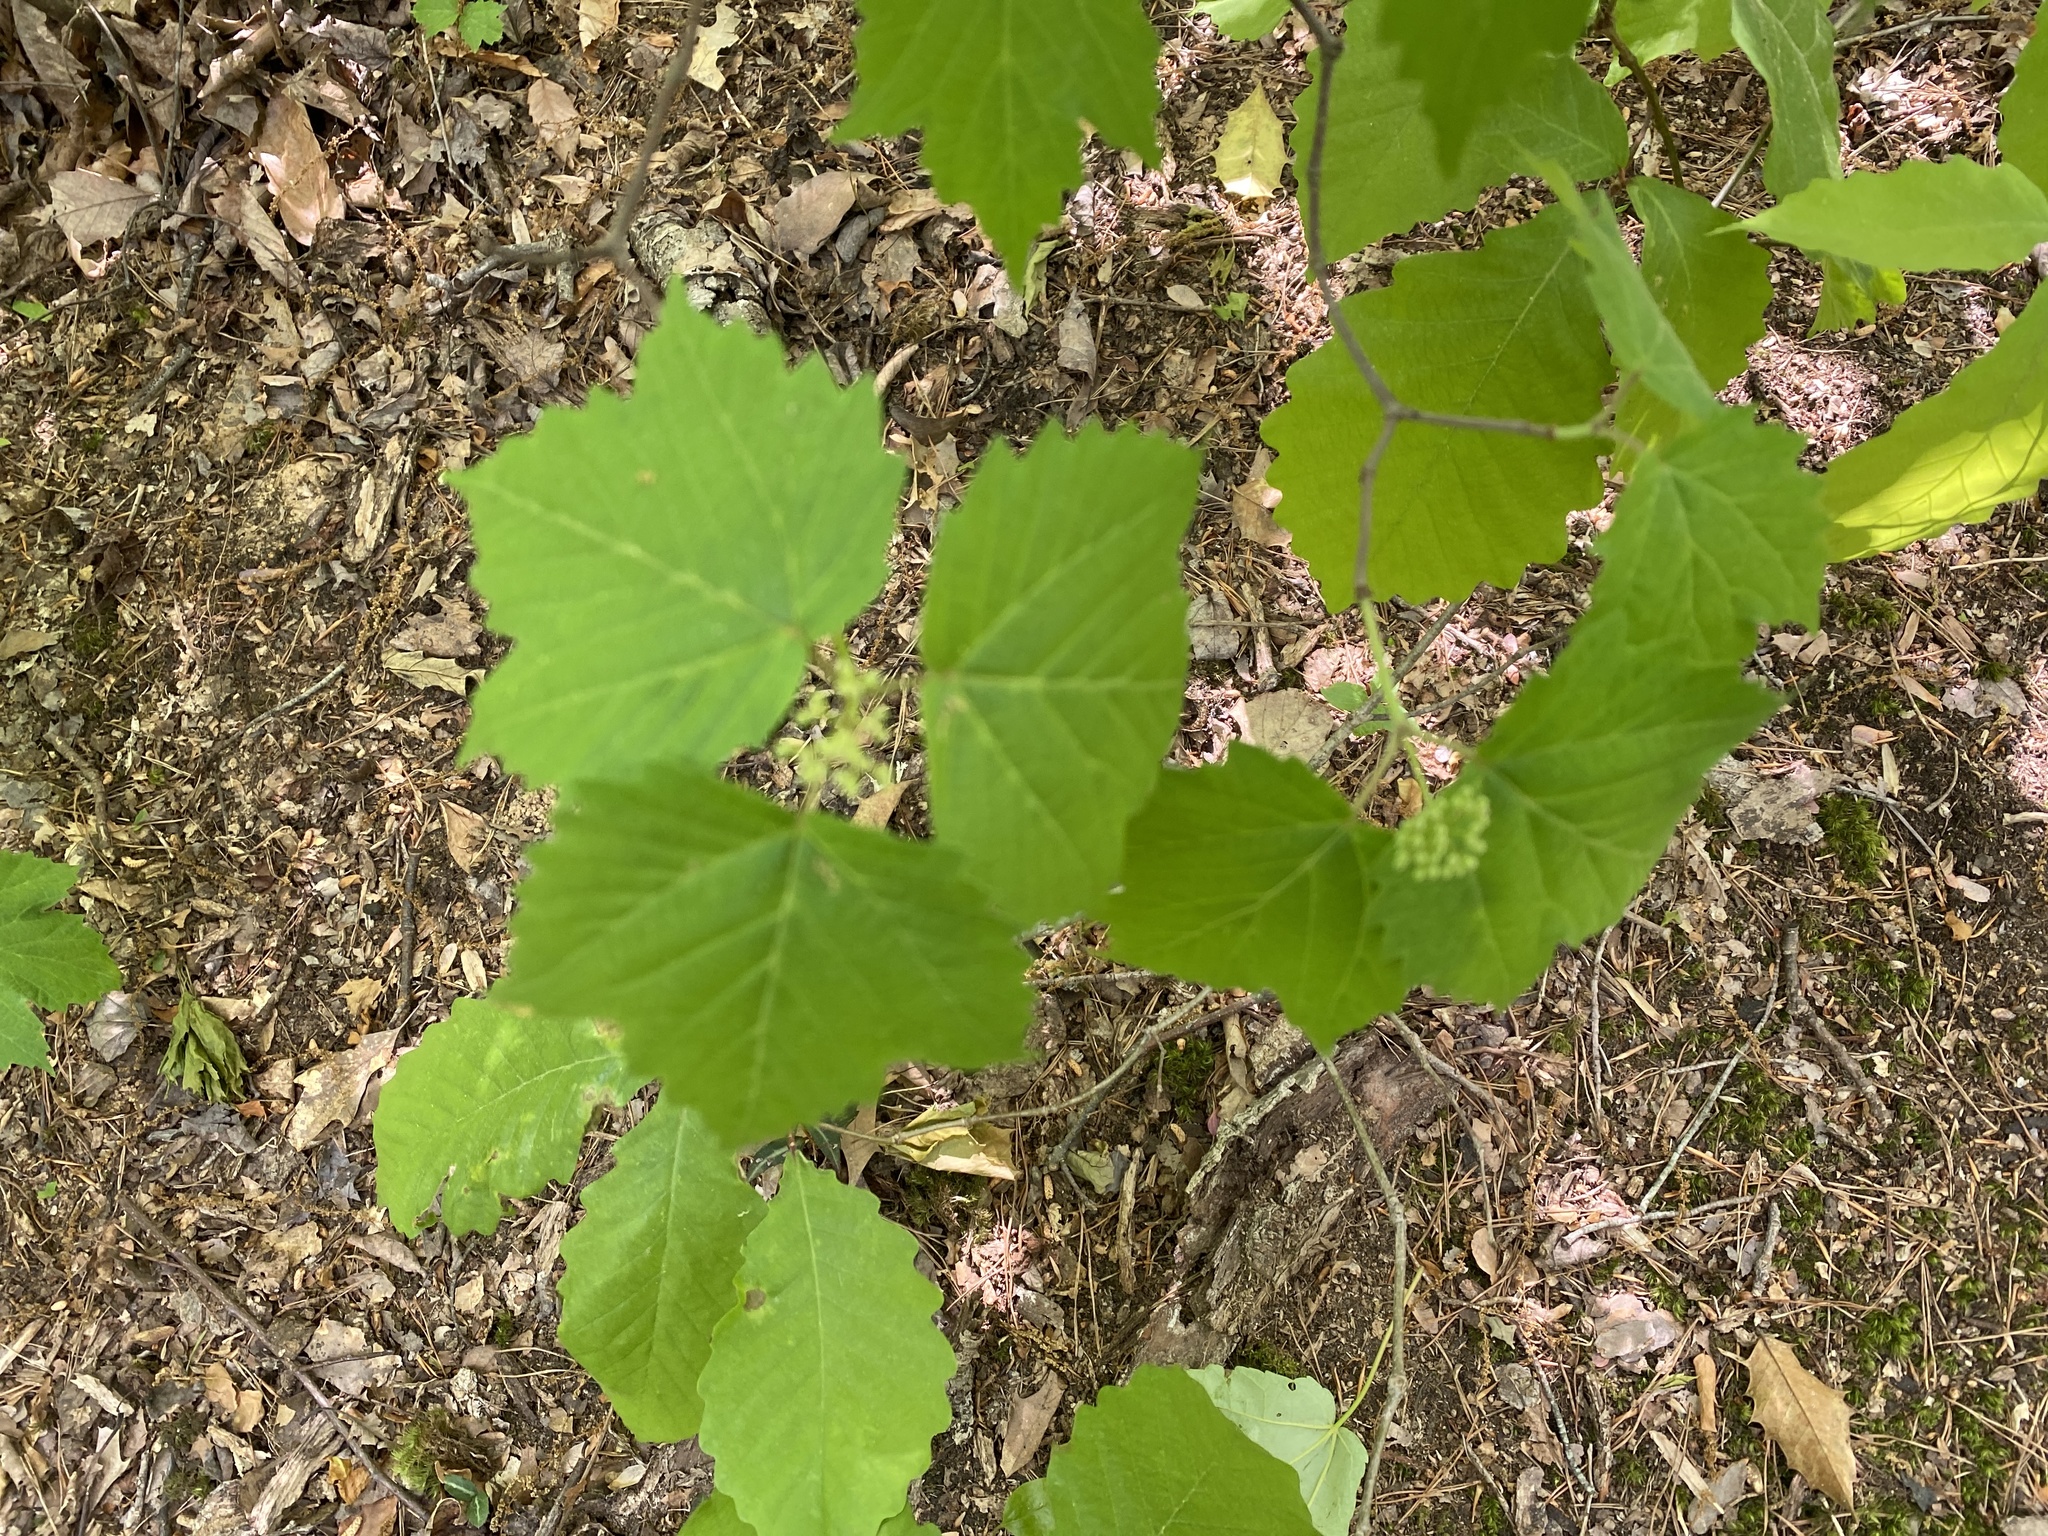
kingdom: Plantae
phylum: Tracheophyta
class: Magnoliopsida
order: Dipsacales
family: Viburnaceae
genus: Viburnum
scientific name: Viburnum acerifolium
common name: Dockmackie
